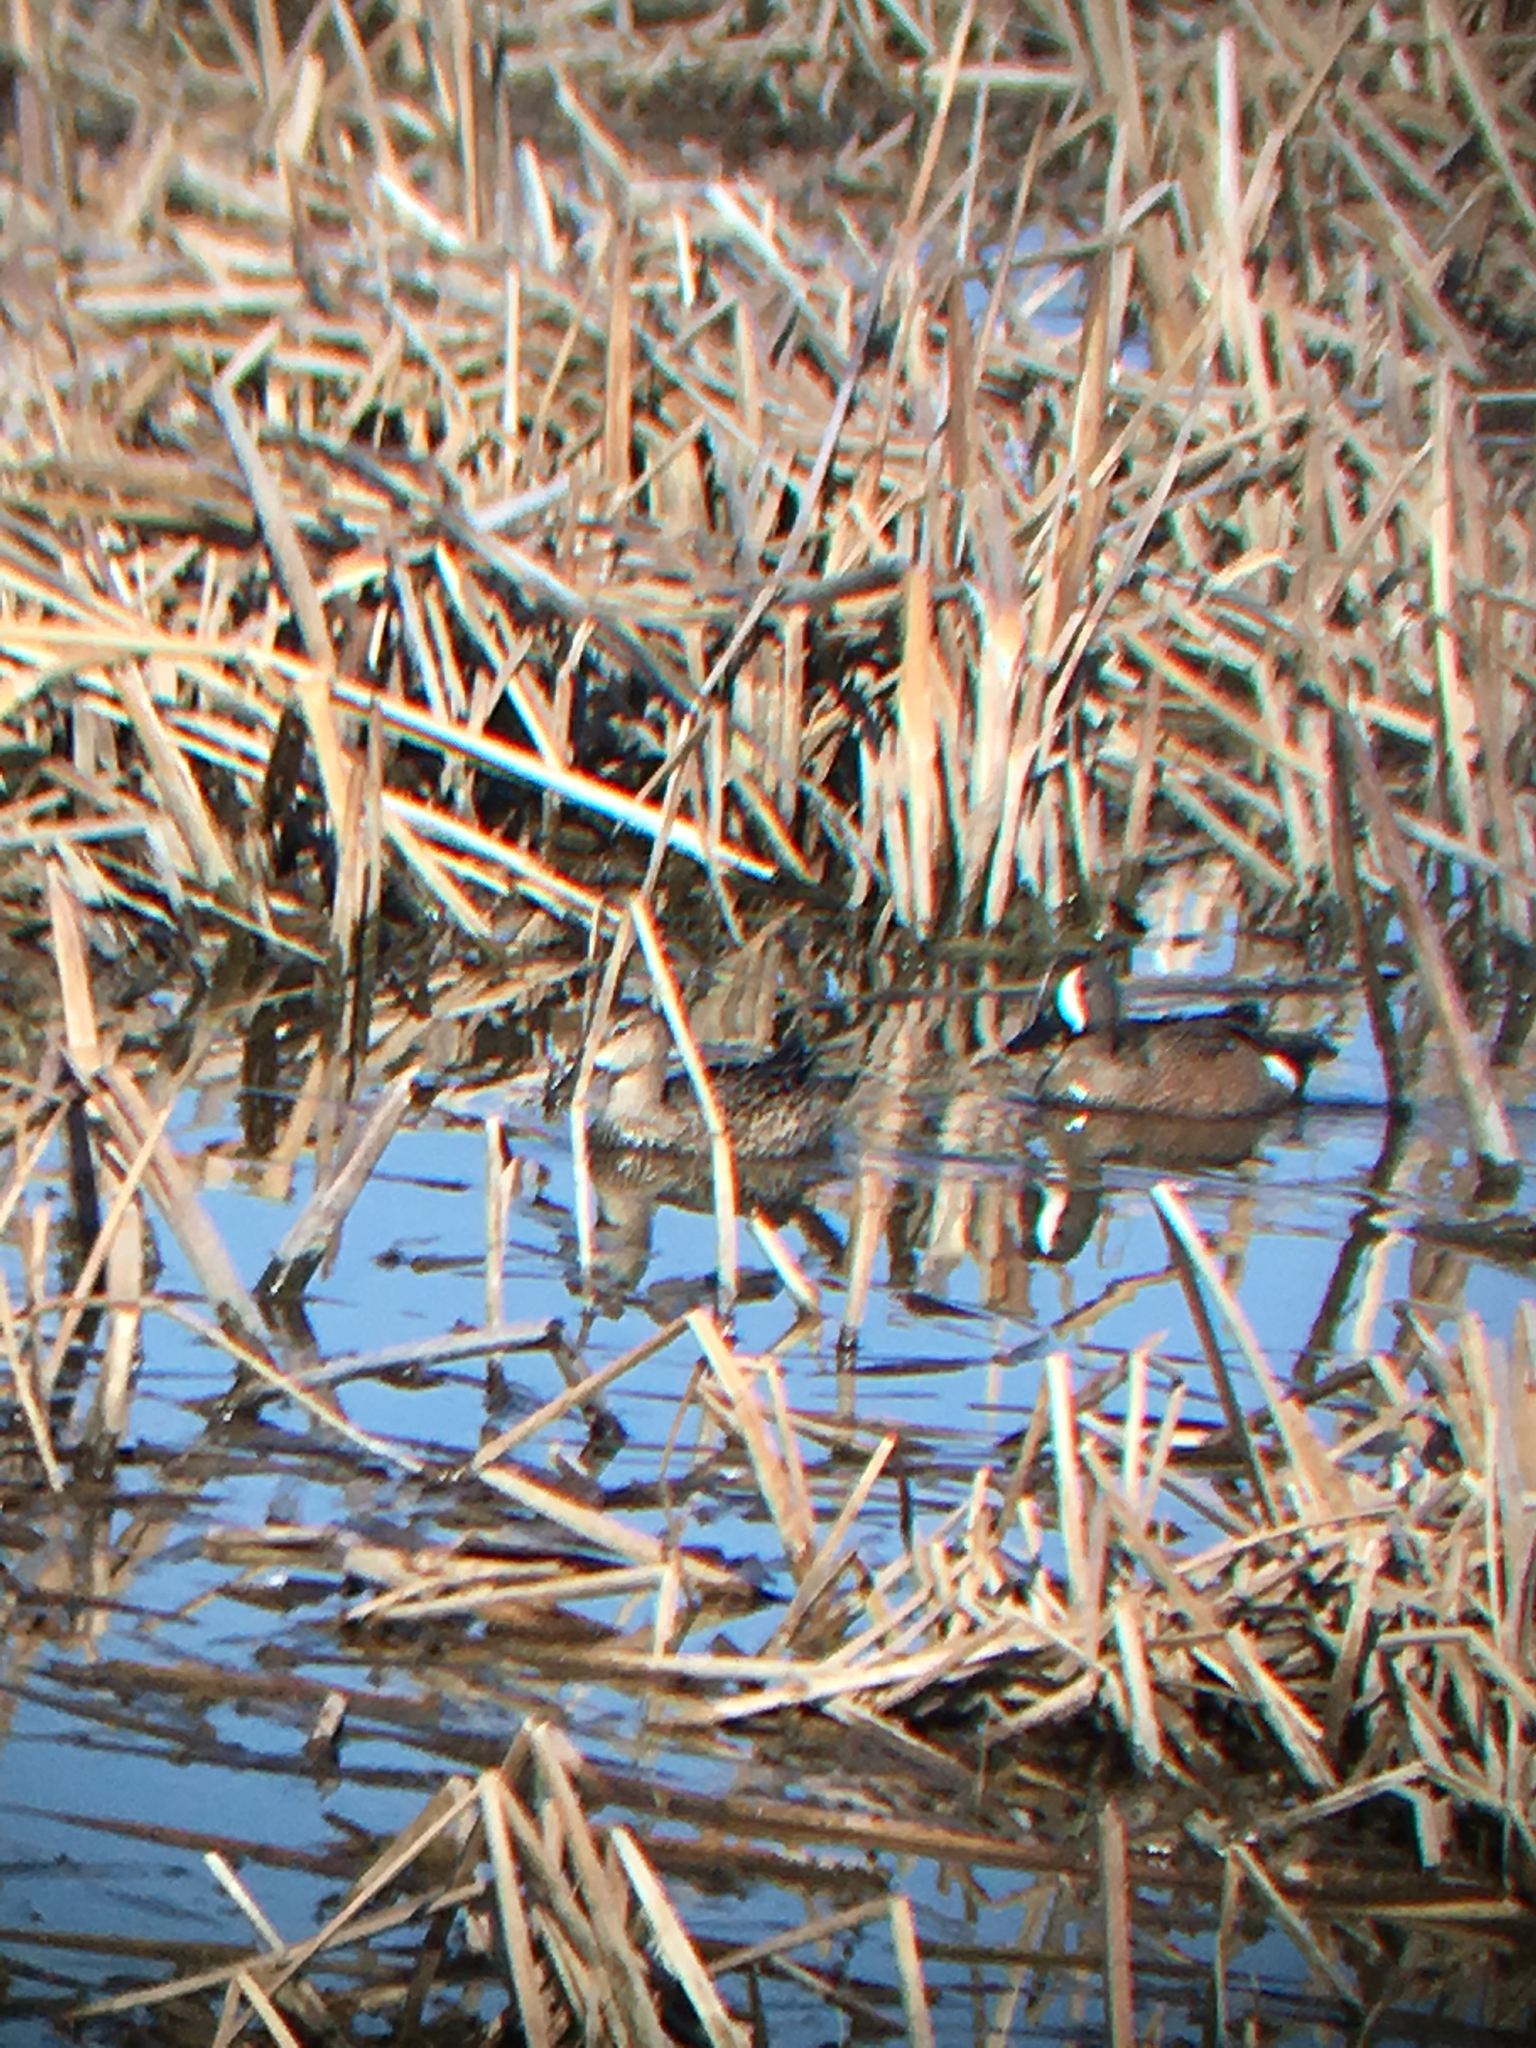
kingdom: Animalia
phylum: Chordata
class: Aves
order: Anseriformes
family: Anatidae
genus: Spatula
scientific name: Spatula discors
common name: Blue-winged teal
